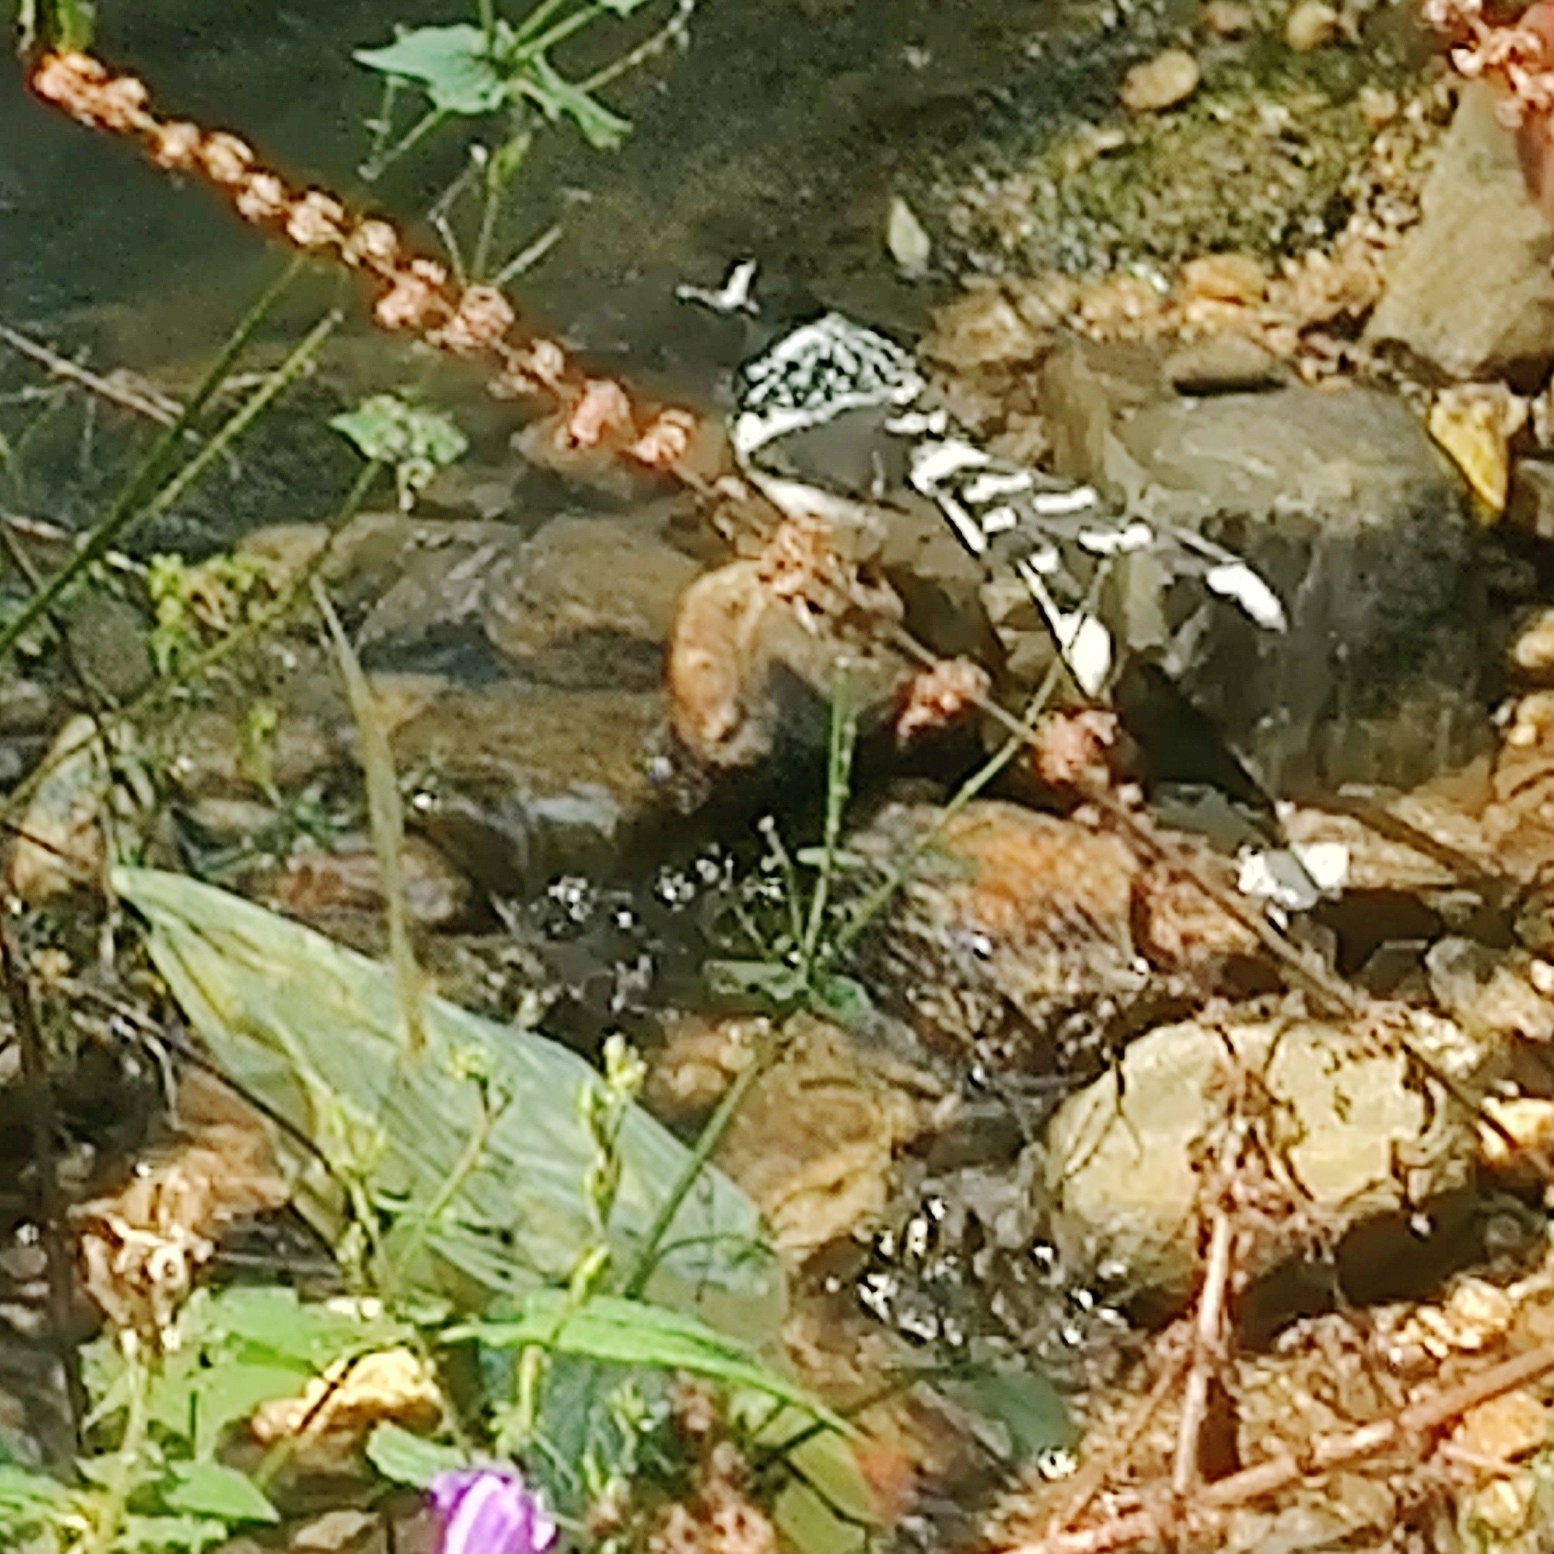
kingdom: Animalia
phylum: Chordata
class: Aves
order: Passeriformes
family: Muscicapidae
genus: Enicurus
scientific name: Enicurus maculatus
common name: Spotted forktail
